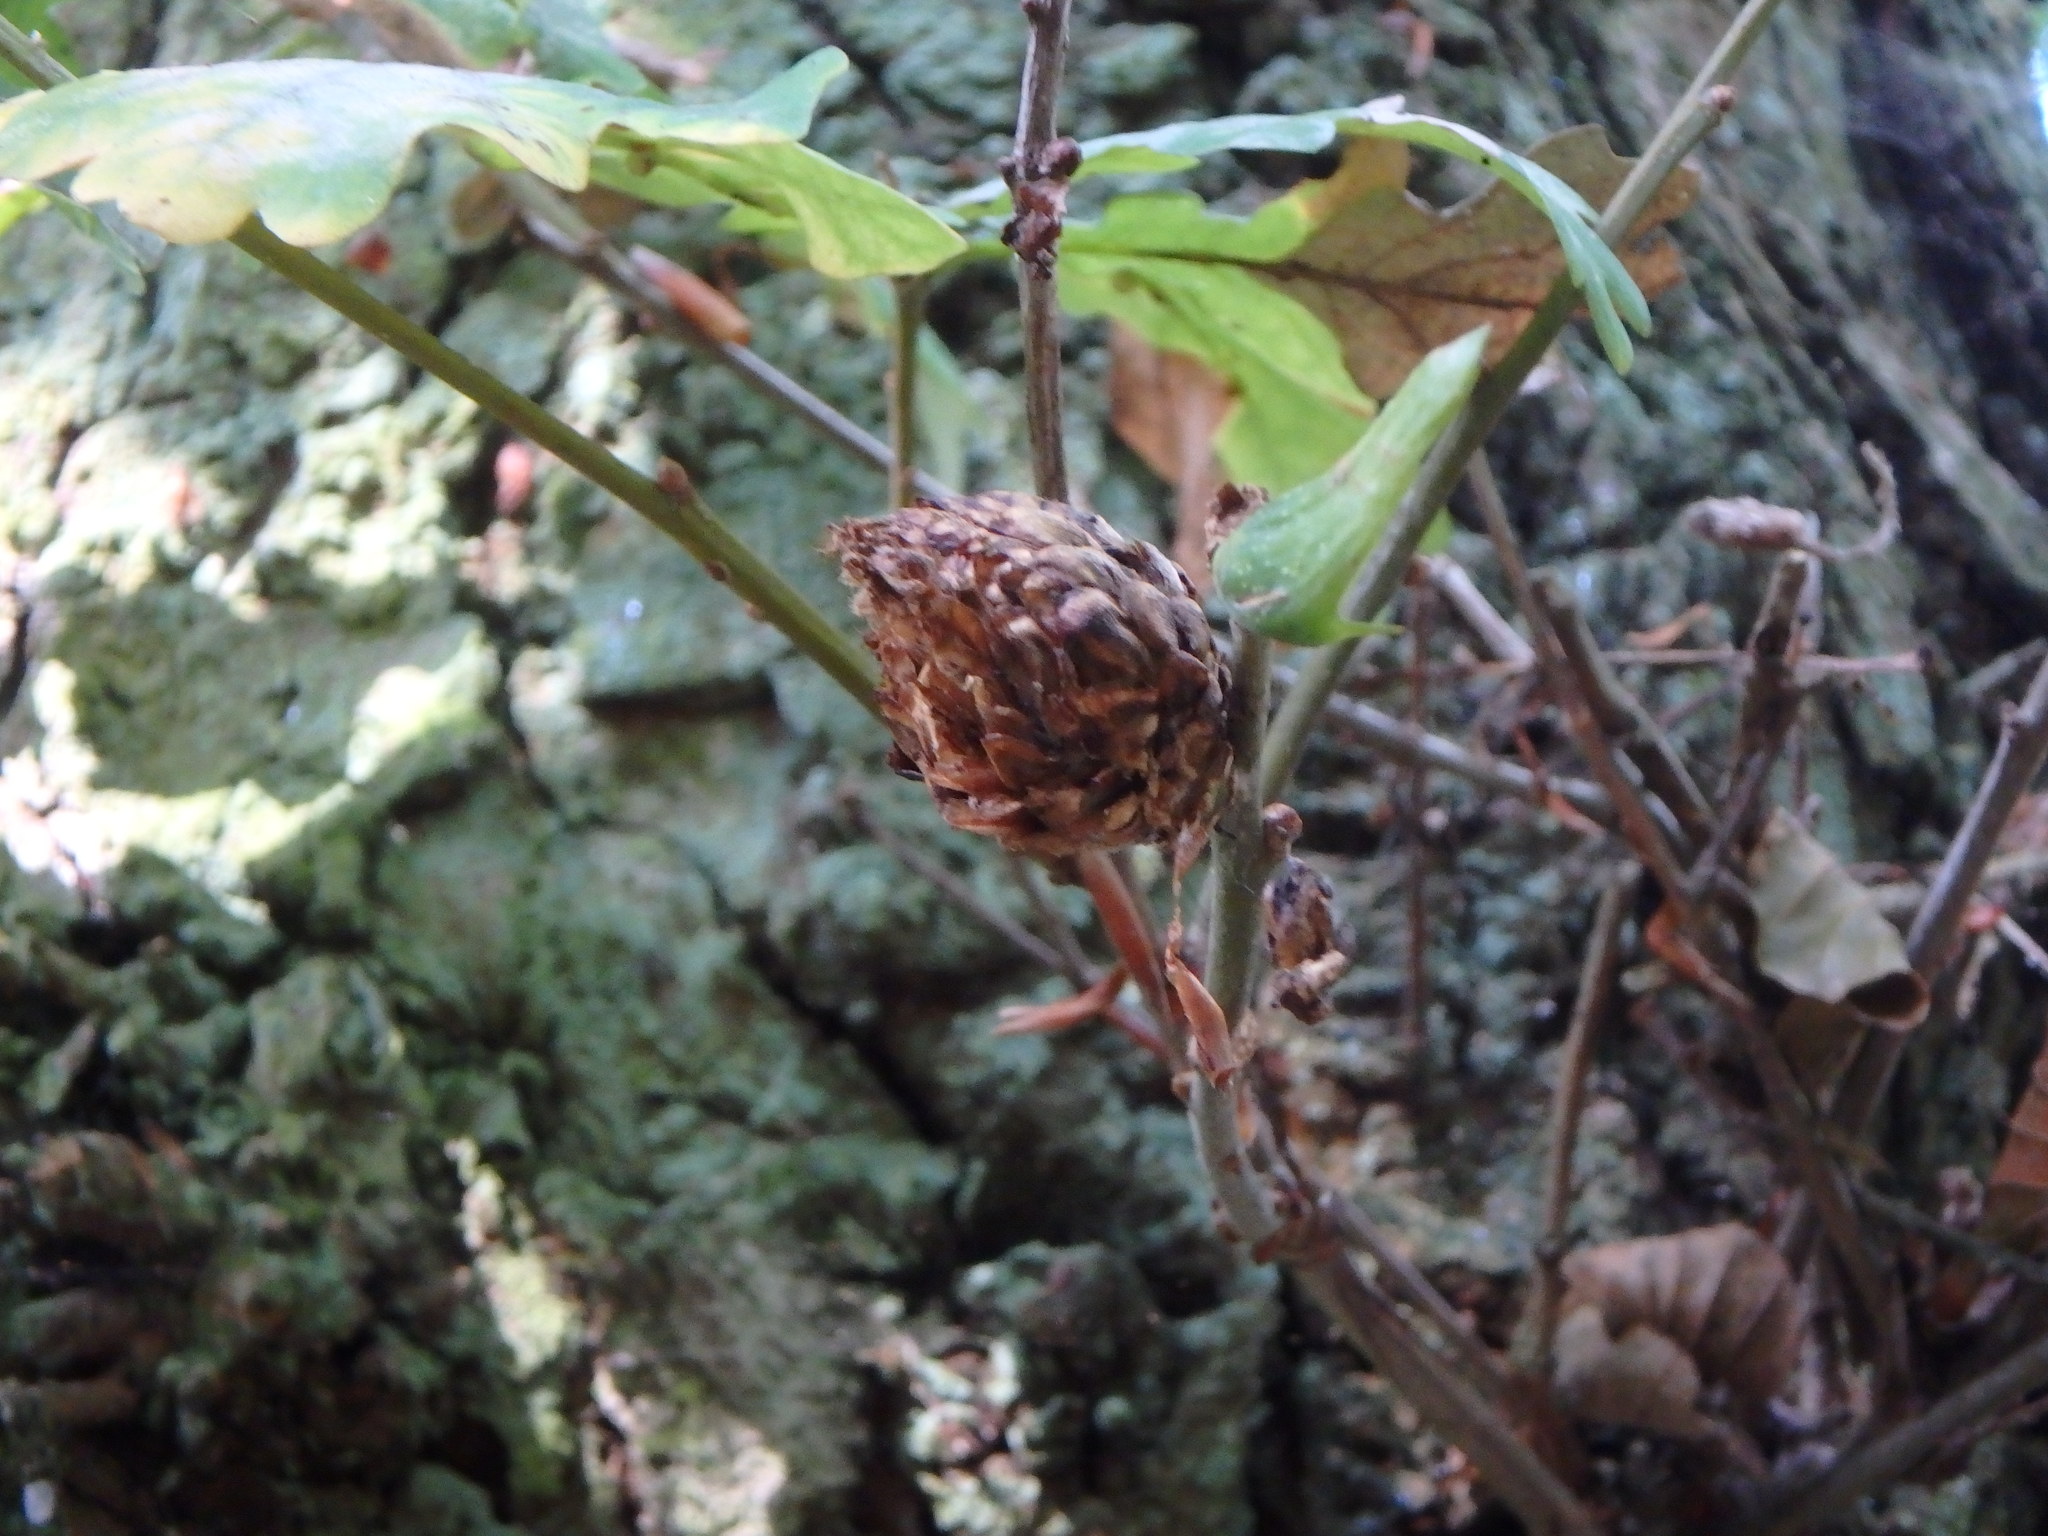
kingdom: Animalia
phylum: Arthropoda
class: Insecta
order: Hymenoptera
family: Cynipidae
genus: Andricus
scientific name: Andricus foecundatrix
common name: Artichoke gall
